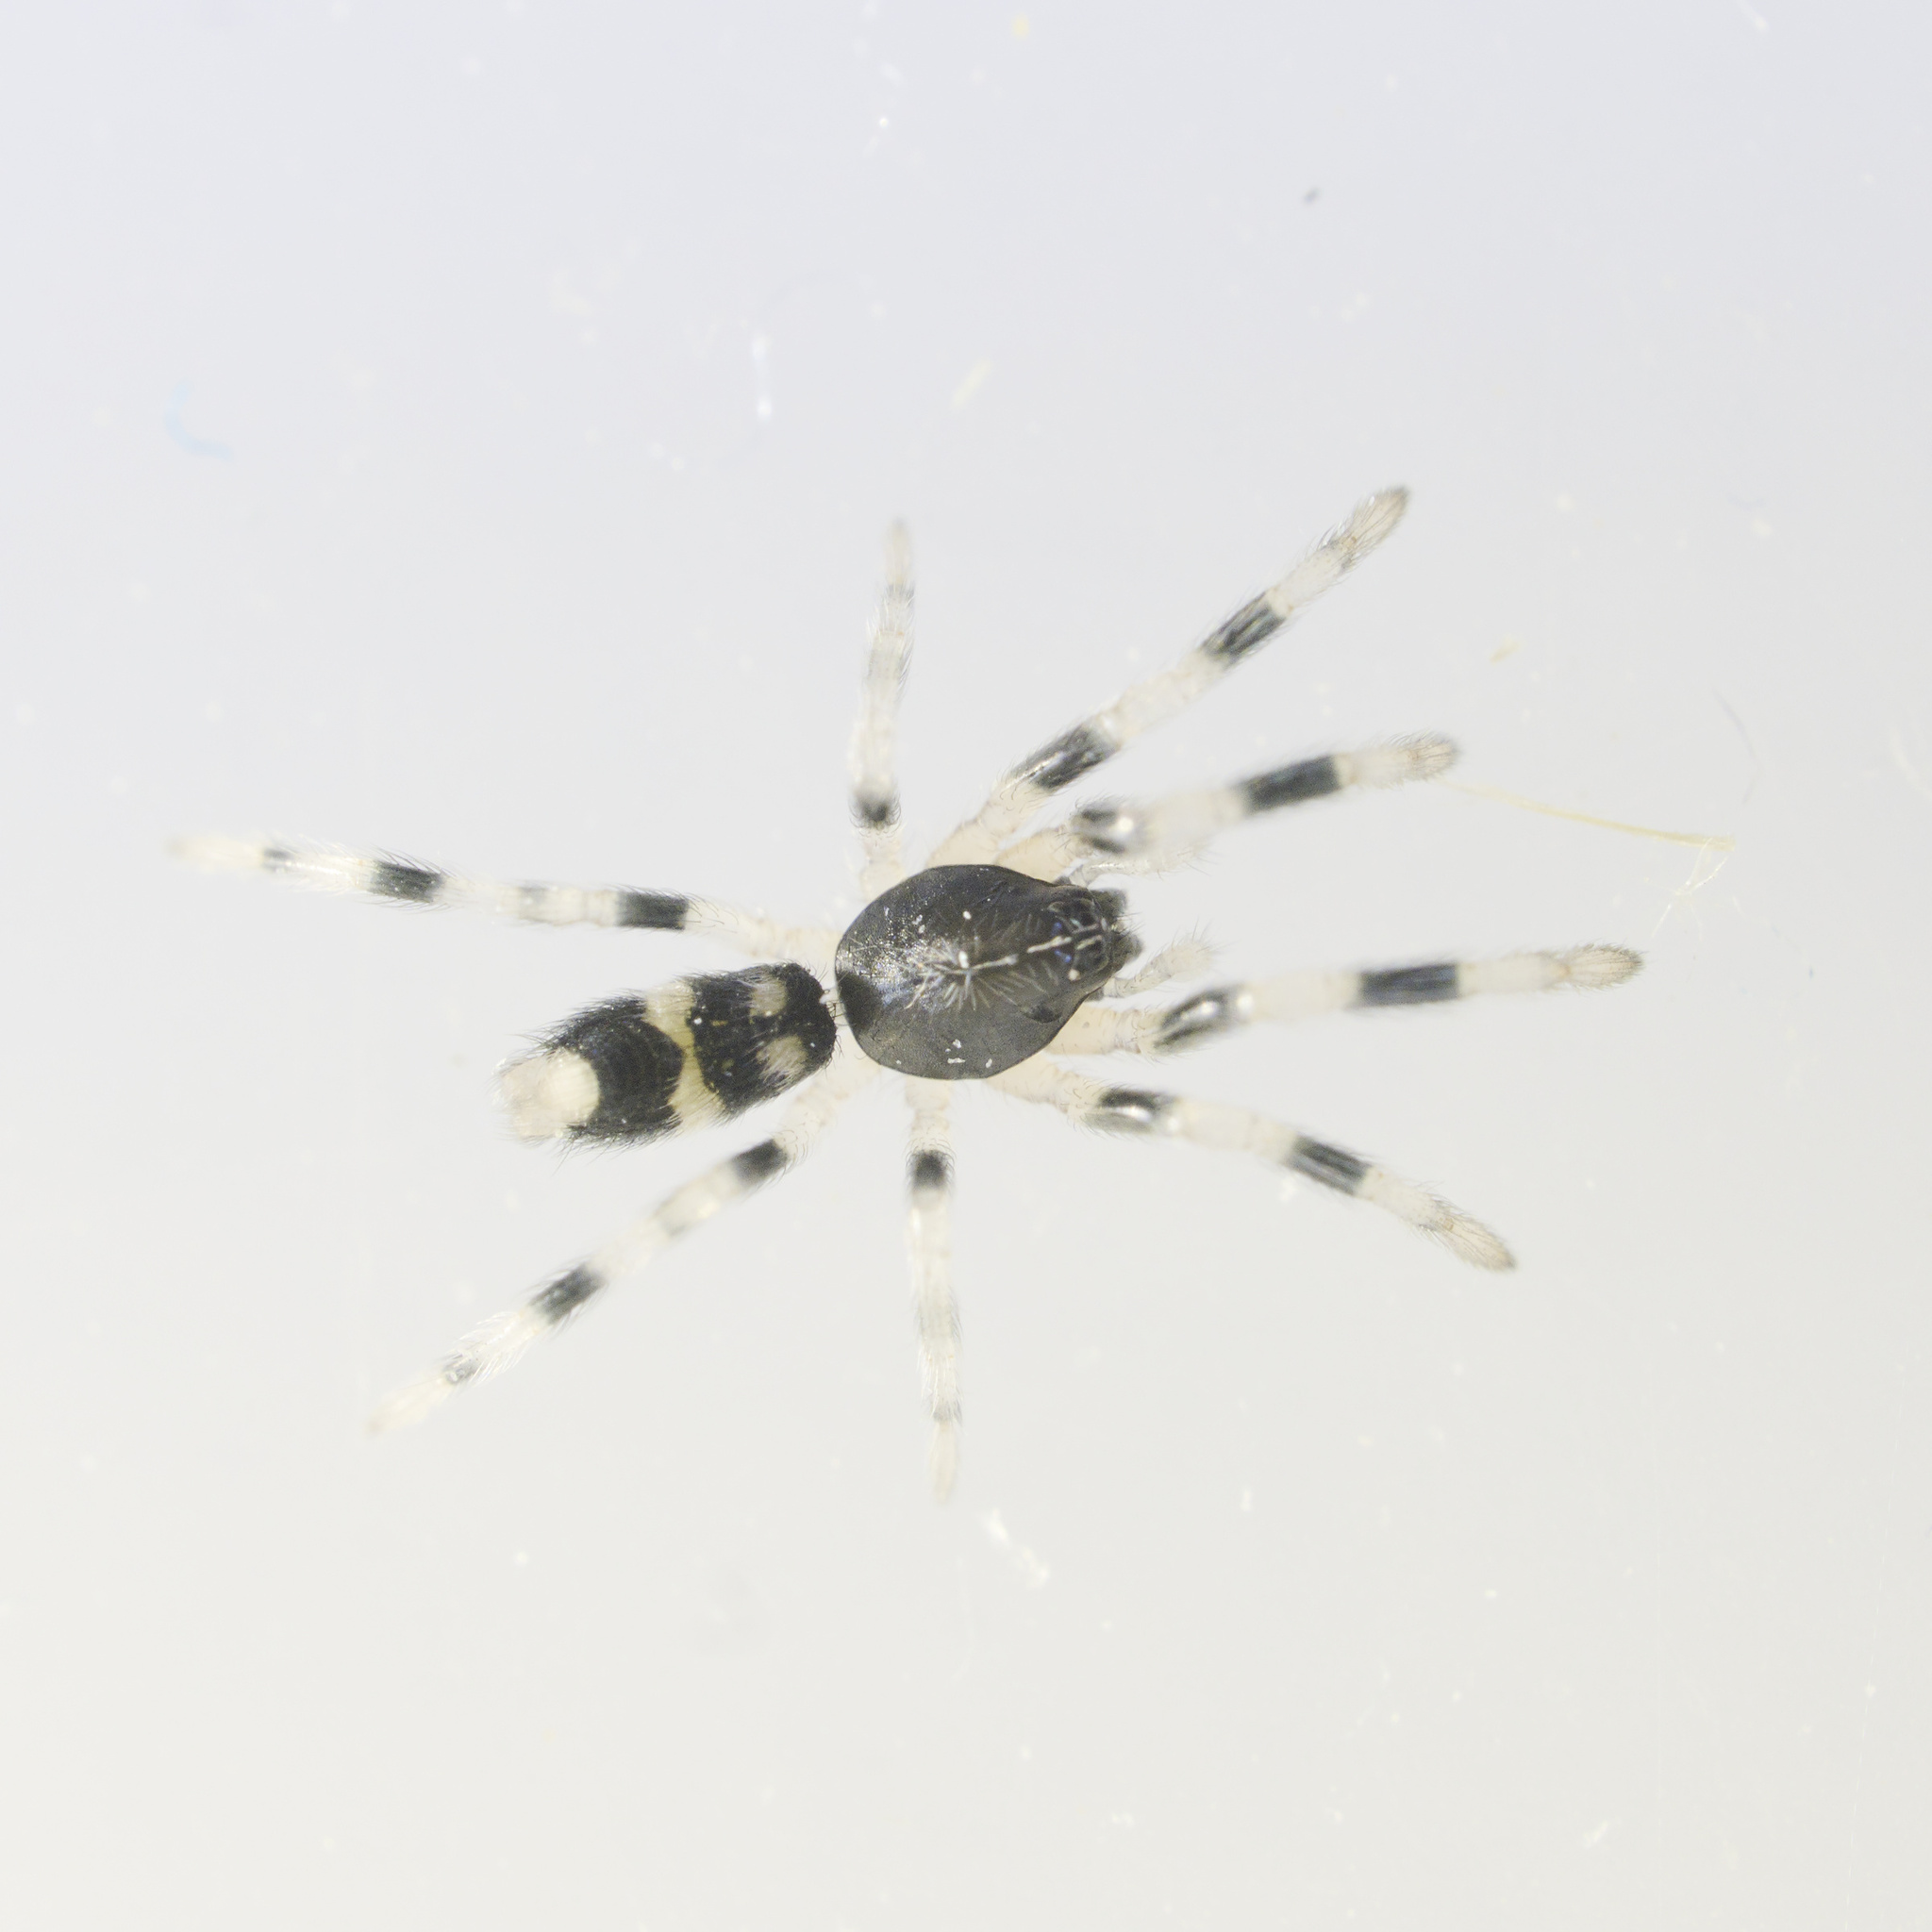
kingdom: Animalia
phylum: Arthropoda
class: Arachnida
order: Araneae
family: Lamponidae
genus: Lampona
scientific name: Lampona
